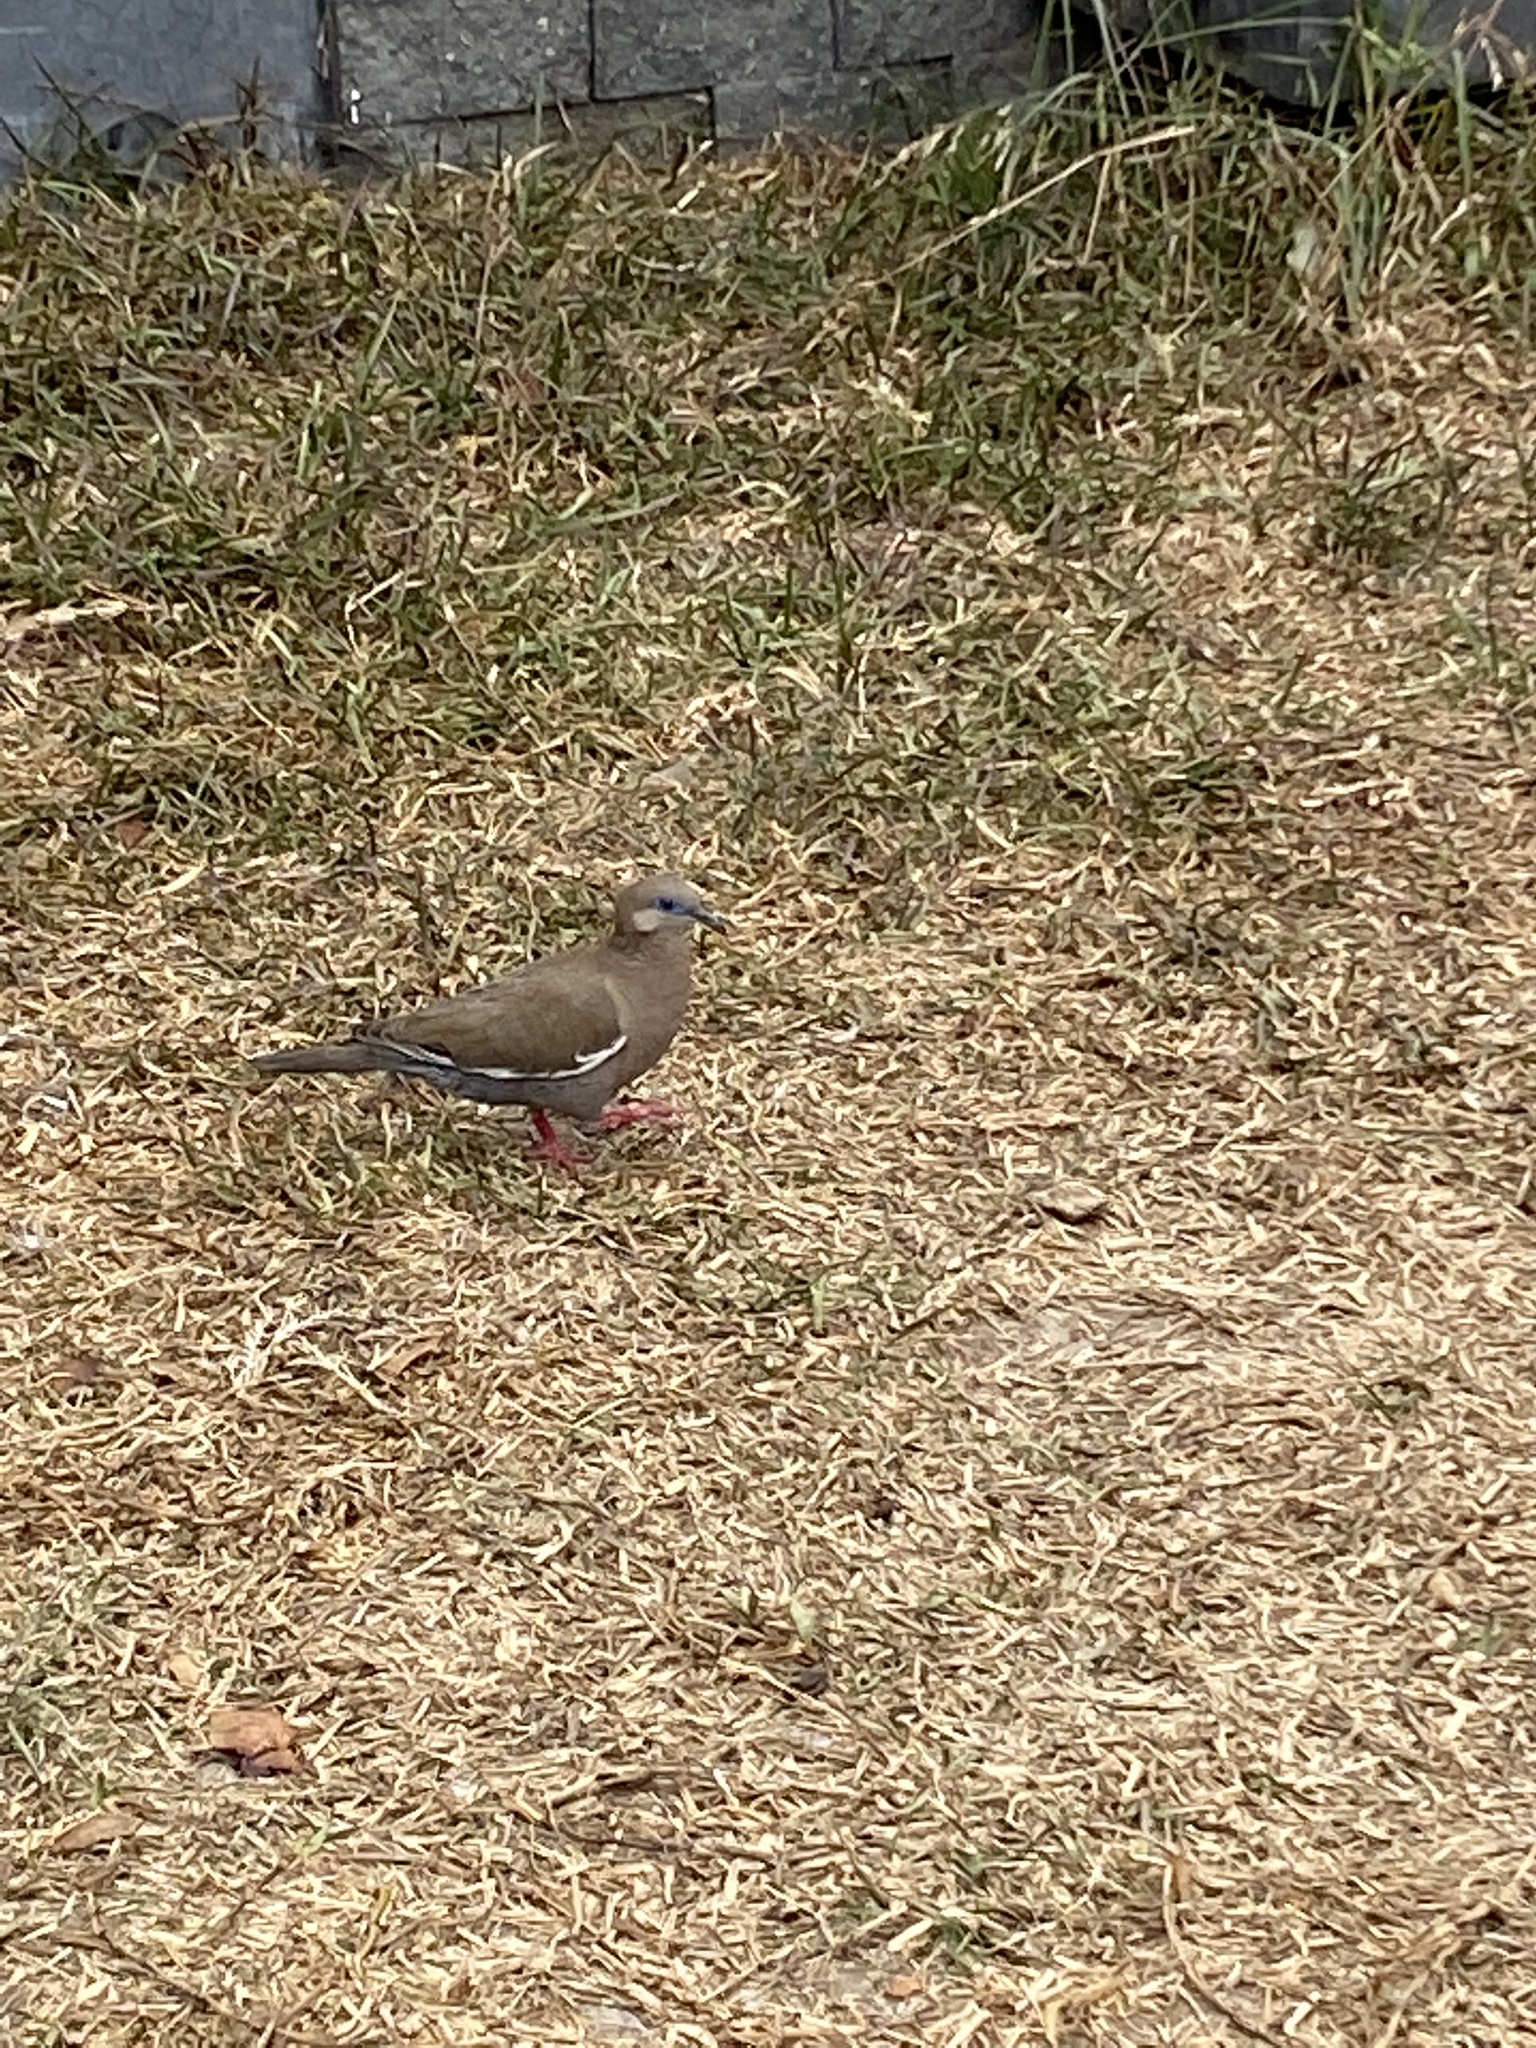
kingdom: Animalia
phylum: Chordata
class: Aves
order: Columbiformes
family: Columbidae
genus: Zenaida
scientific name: Zenaida meloda
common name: West peruvian dove
